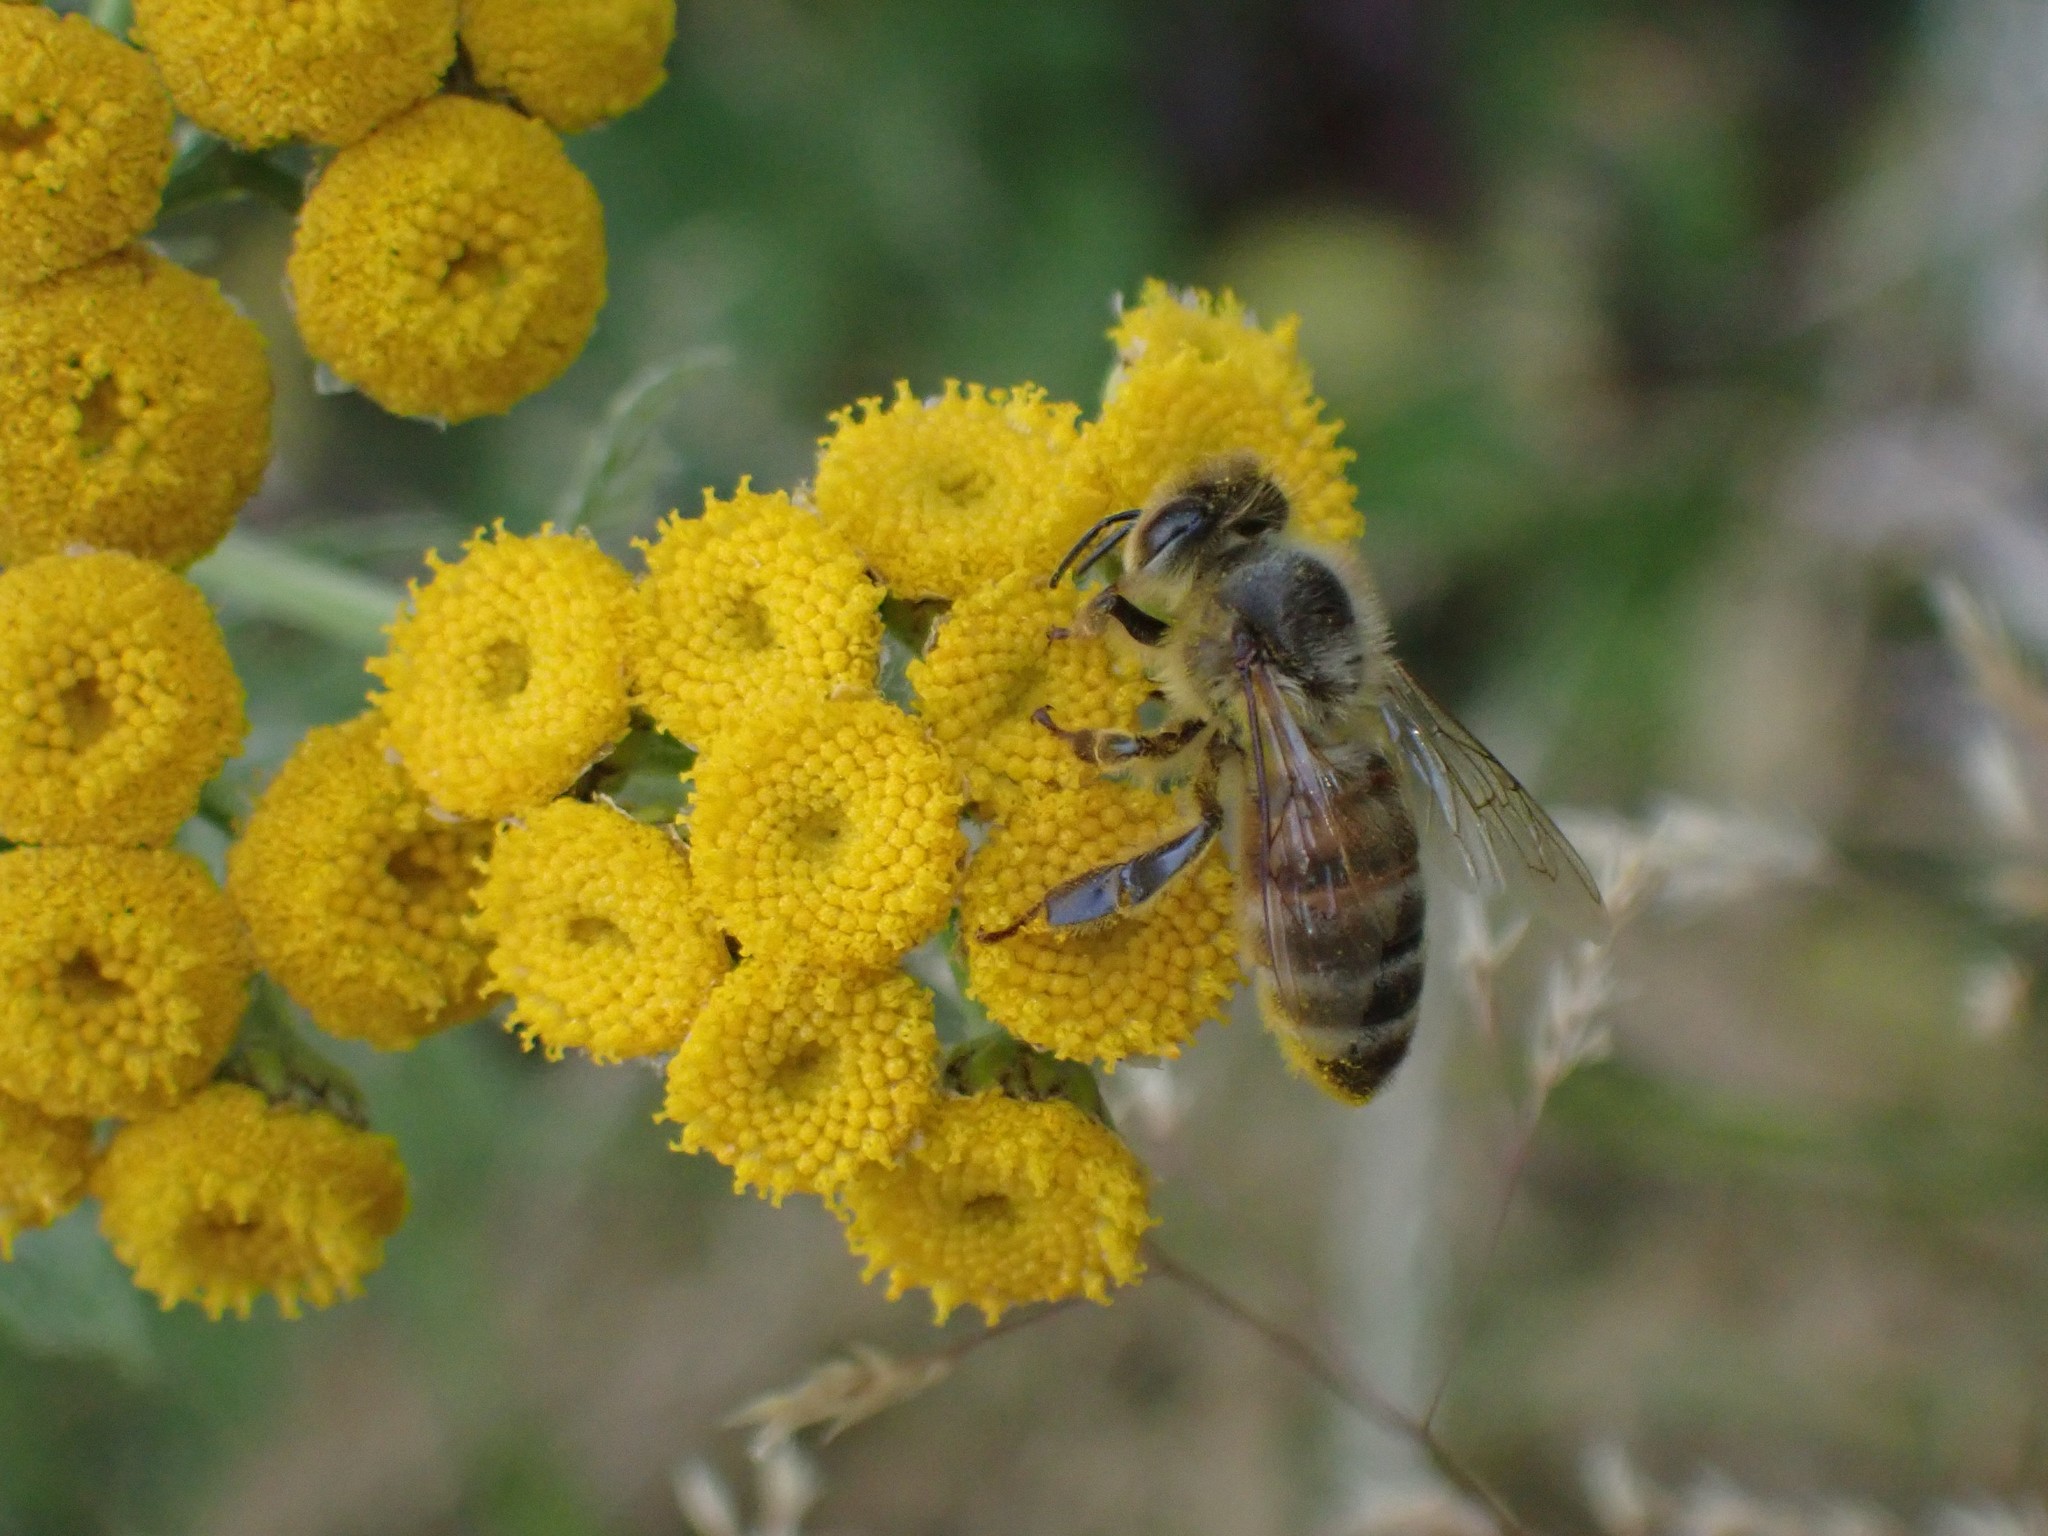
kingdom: Animalia
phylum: Arthropoda
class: Insecta
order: Hymenoptera
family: Apidae
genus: Apis
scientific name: Apis mellifera
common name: Honey bee
